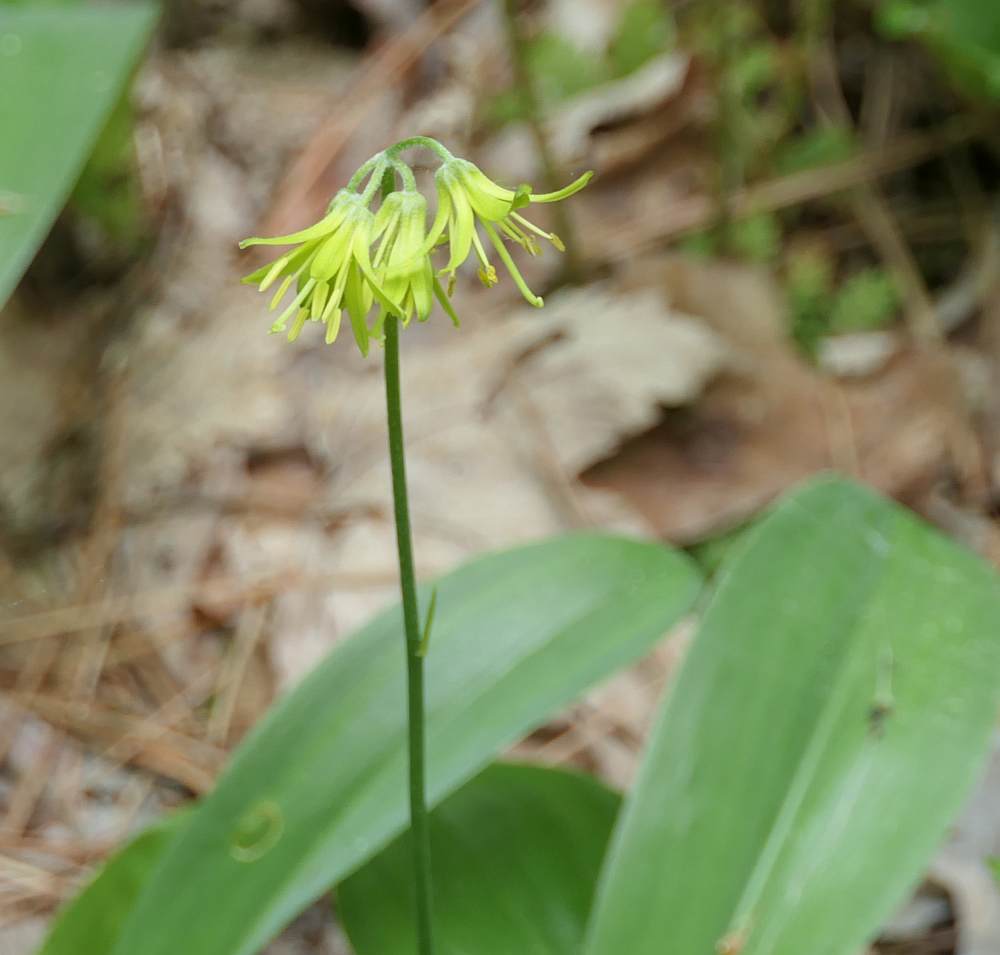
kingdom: Plantae
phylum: Tracheophyta
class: Liliopsida
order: Liliales
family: Liliaceae
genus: Clintonia
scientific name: Clintonia borealis
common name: Yellow clintonia
